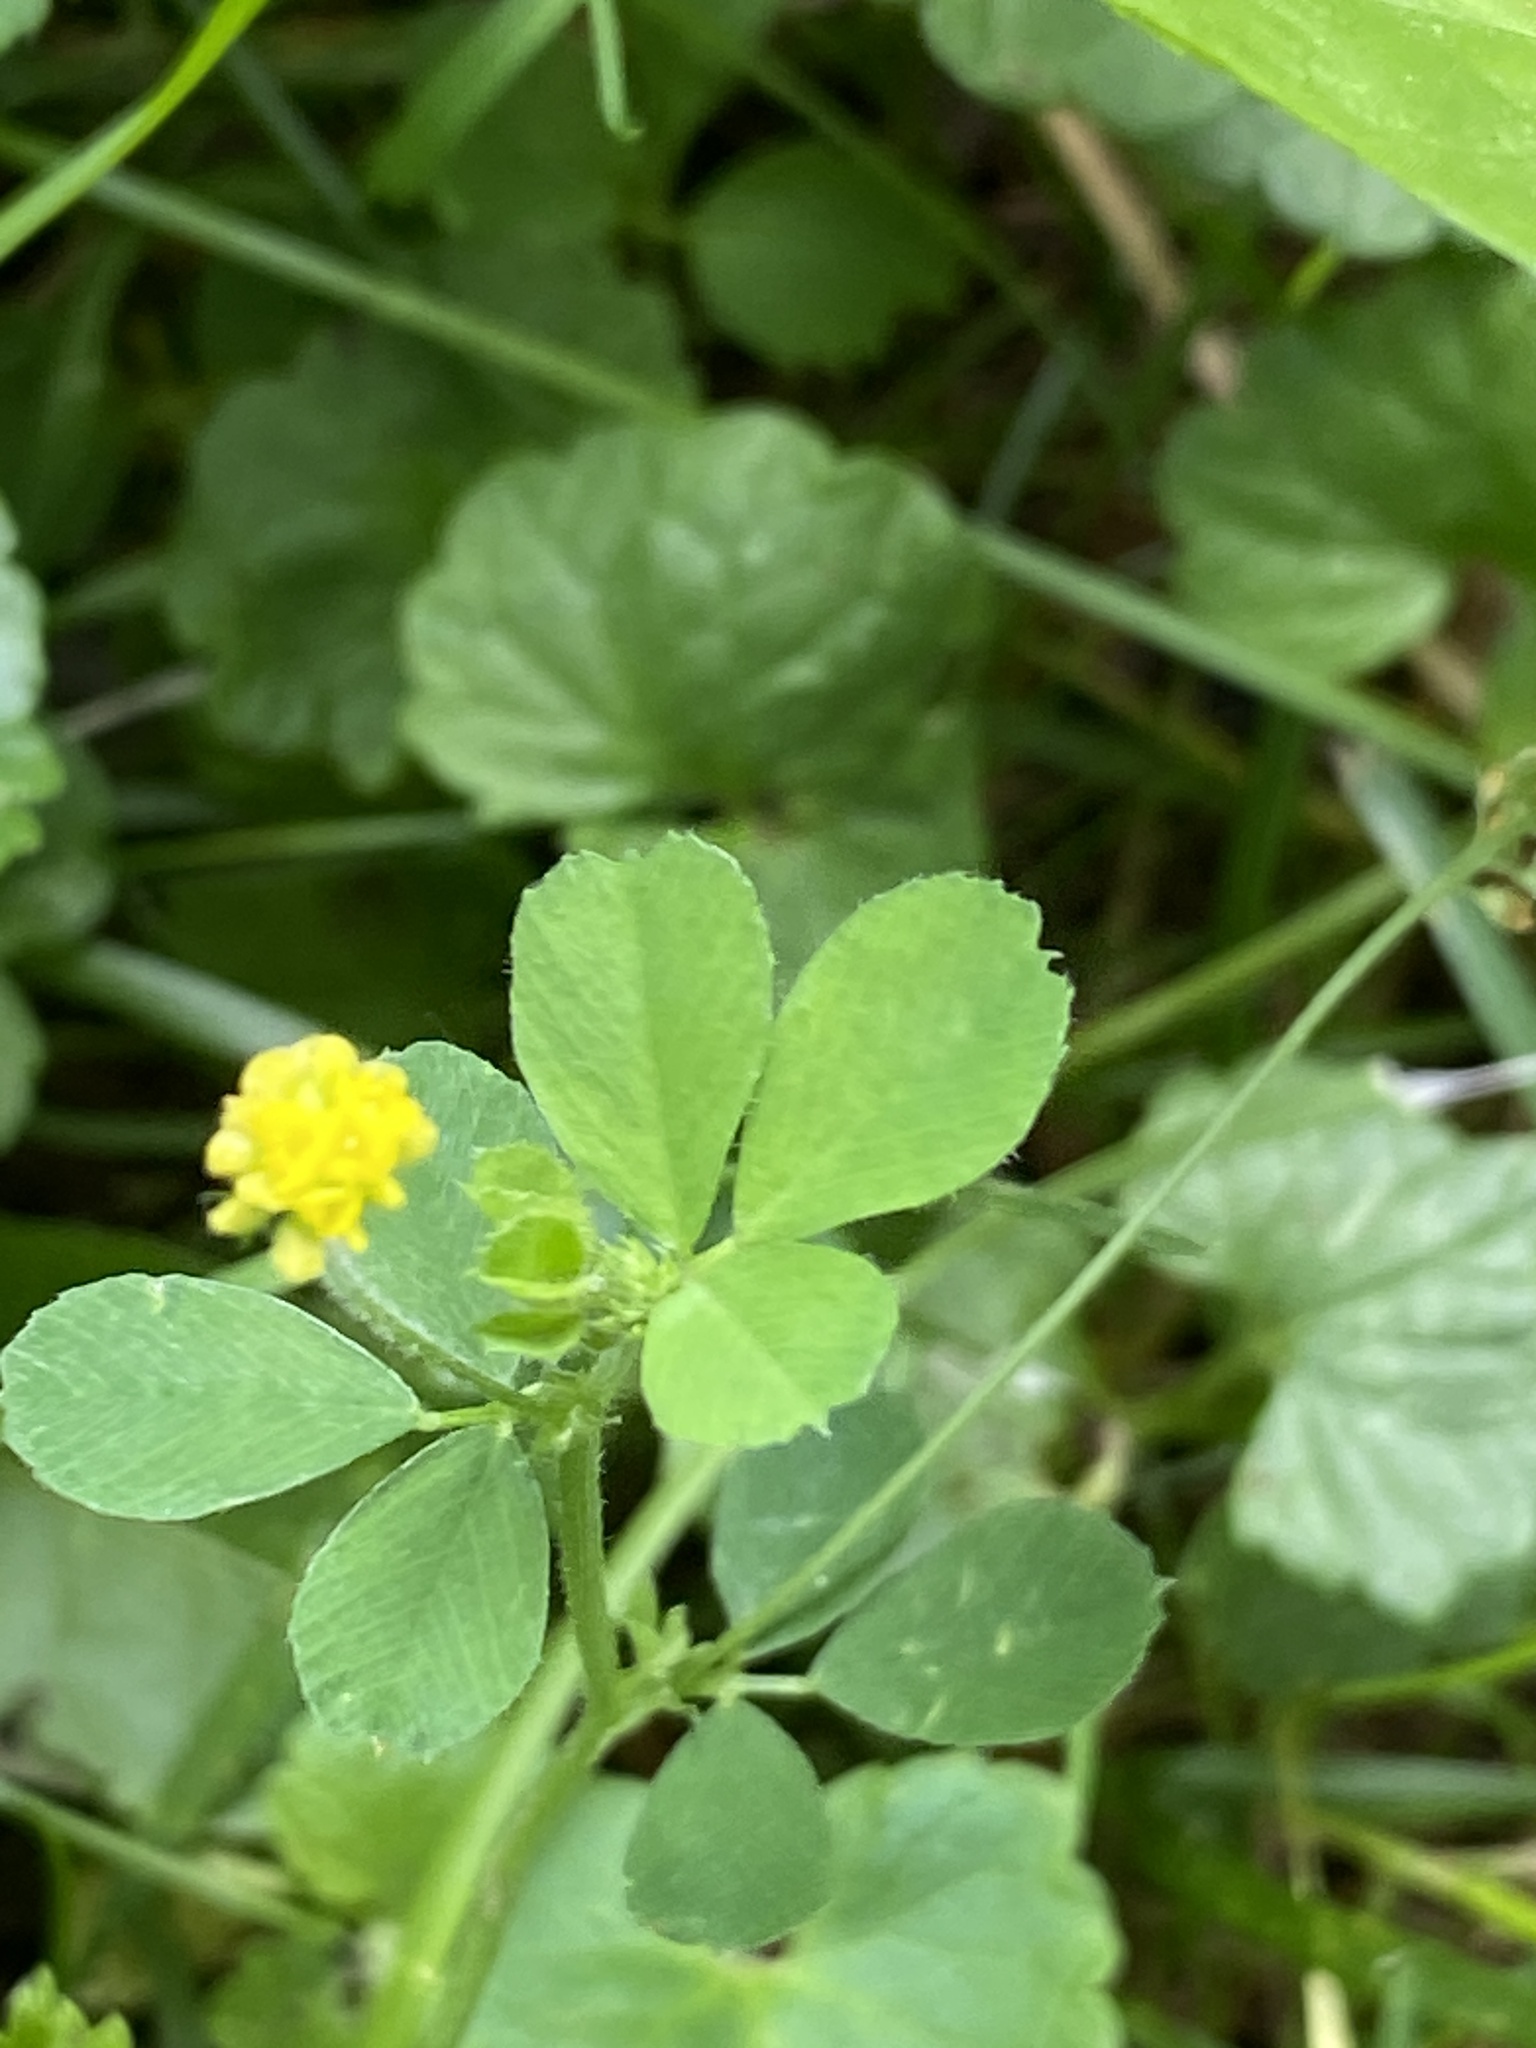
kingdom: Plantae
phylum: Tracheophyta
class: Magnoliopsida
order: Fabales
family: Fabaceae
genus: Medicago
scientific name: Medicago lupulina
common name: Black medick
